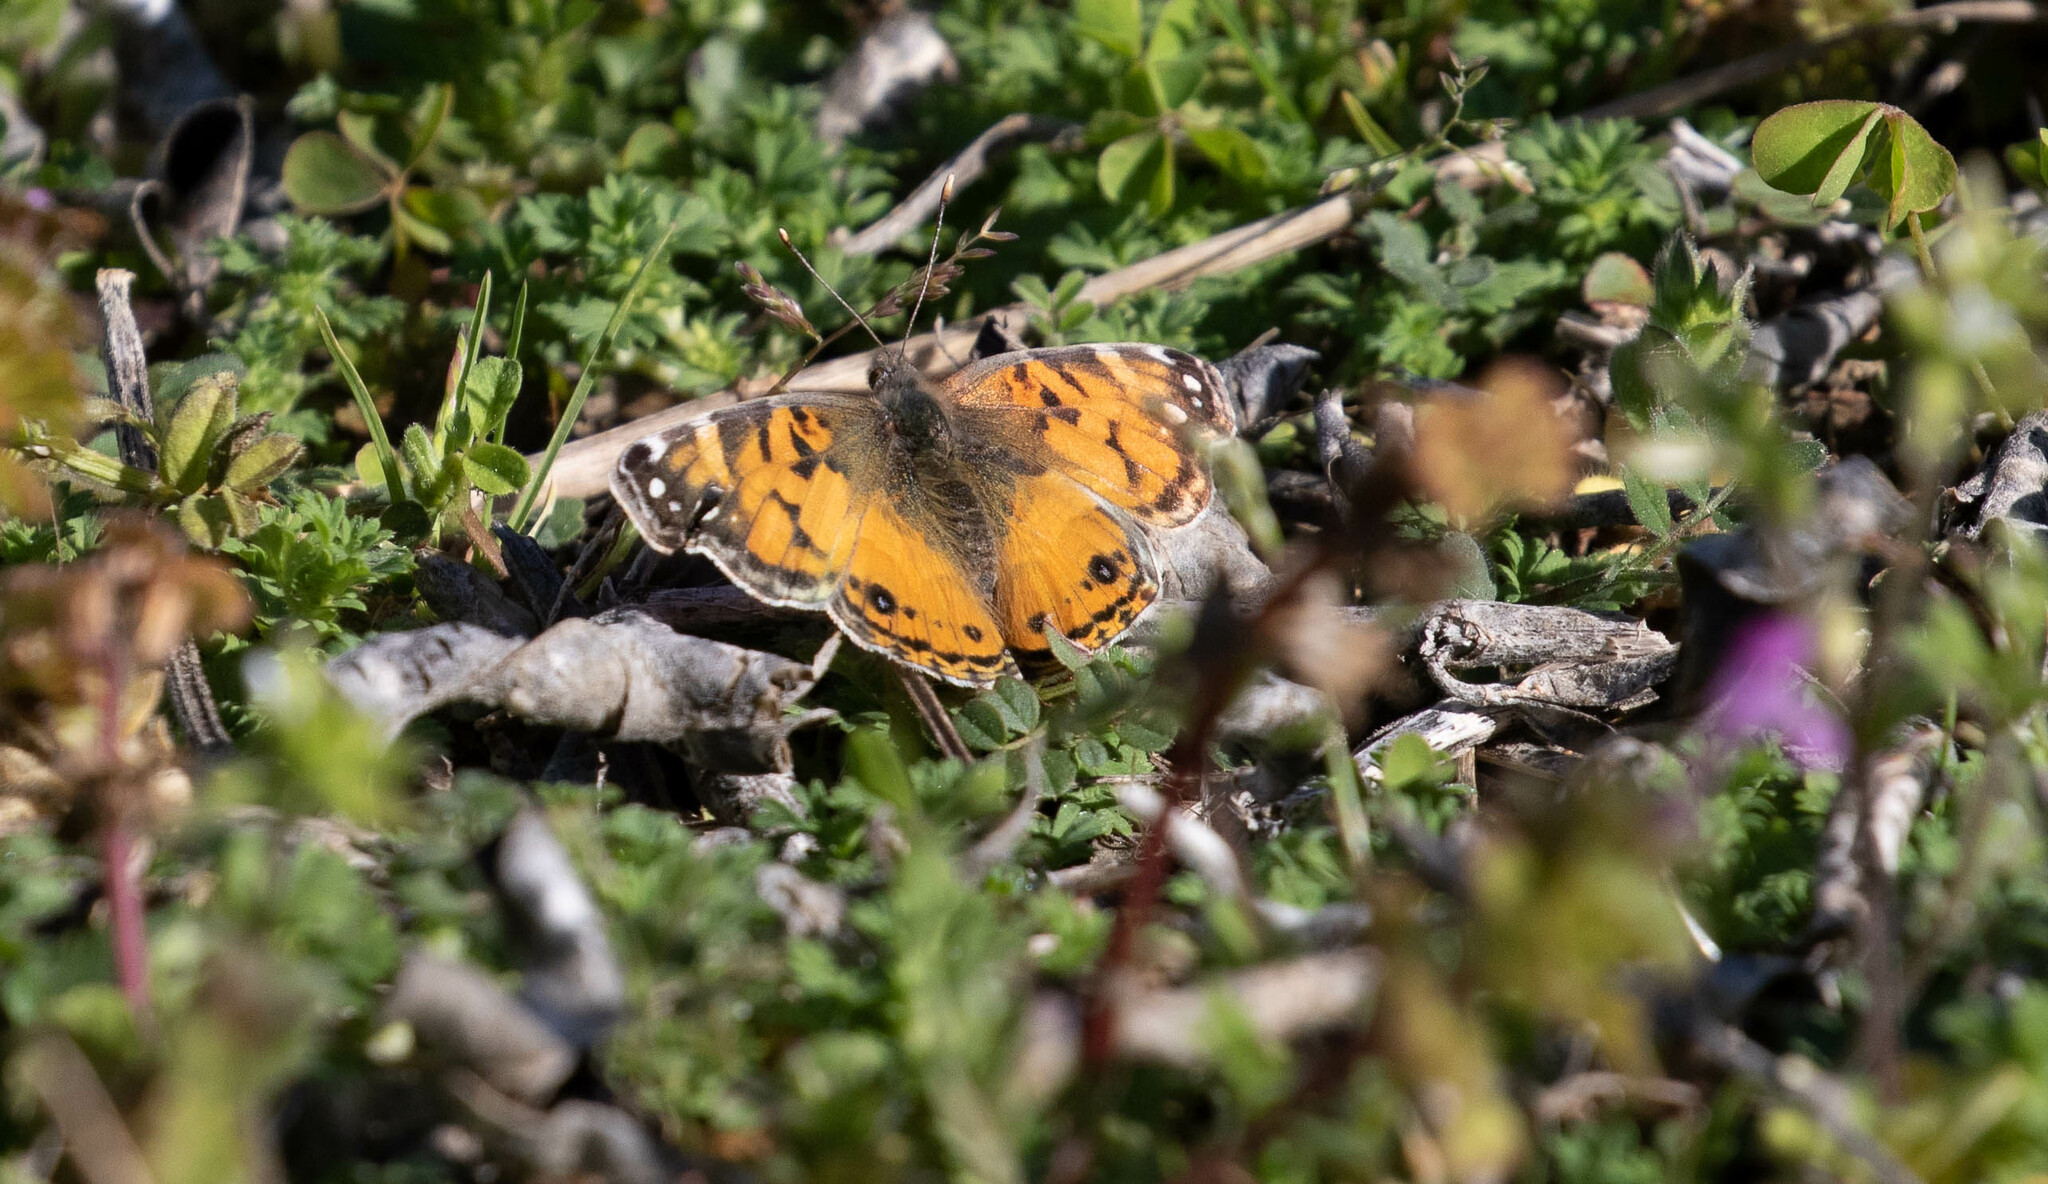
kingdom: Animalia
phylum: Arthropoda
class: Insecta
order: Lepidoptera
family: Nymphalidae
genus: Vanessa
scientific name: Vanessa virginiensis
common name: American lady
